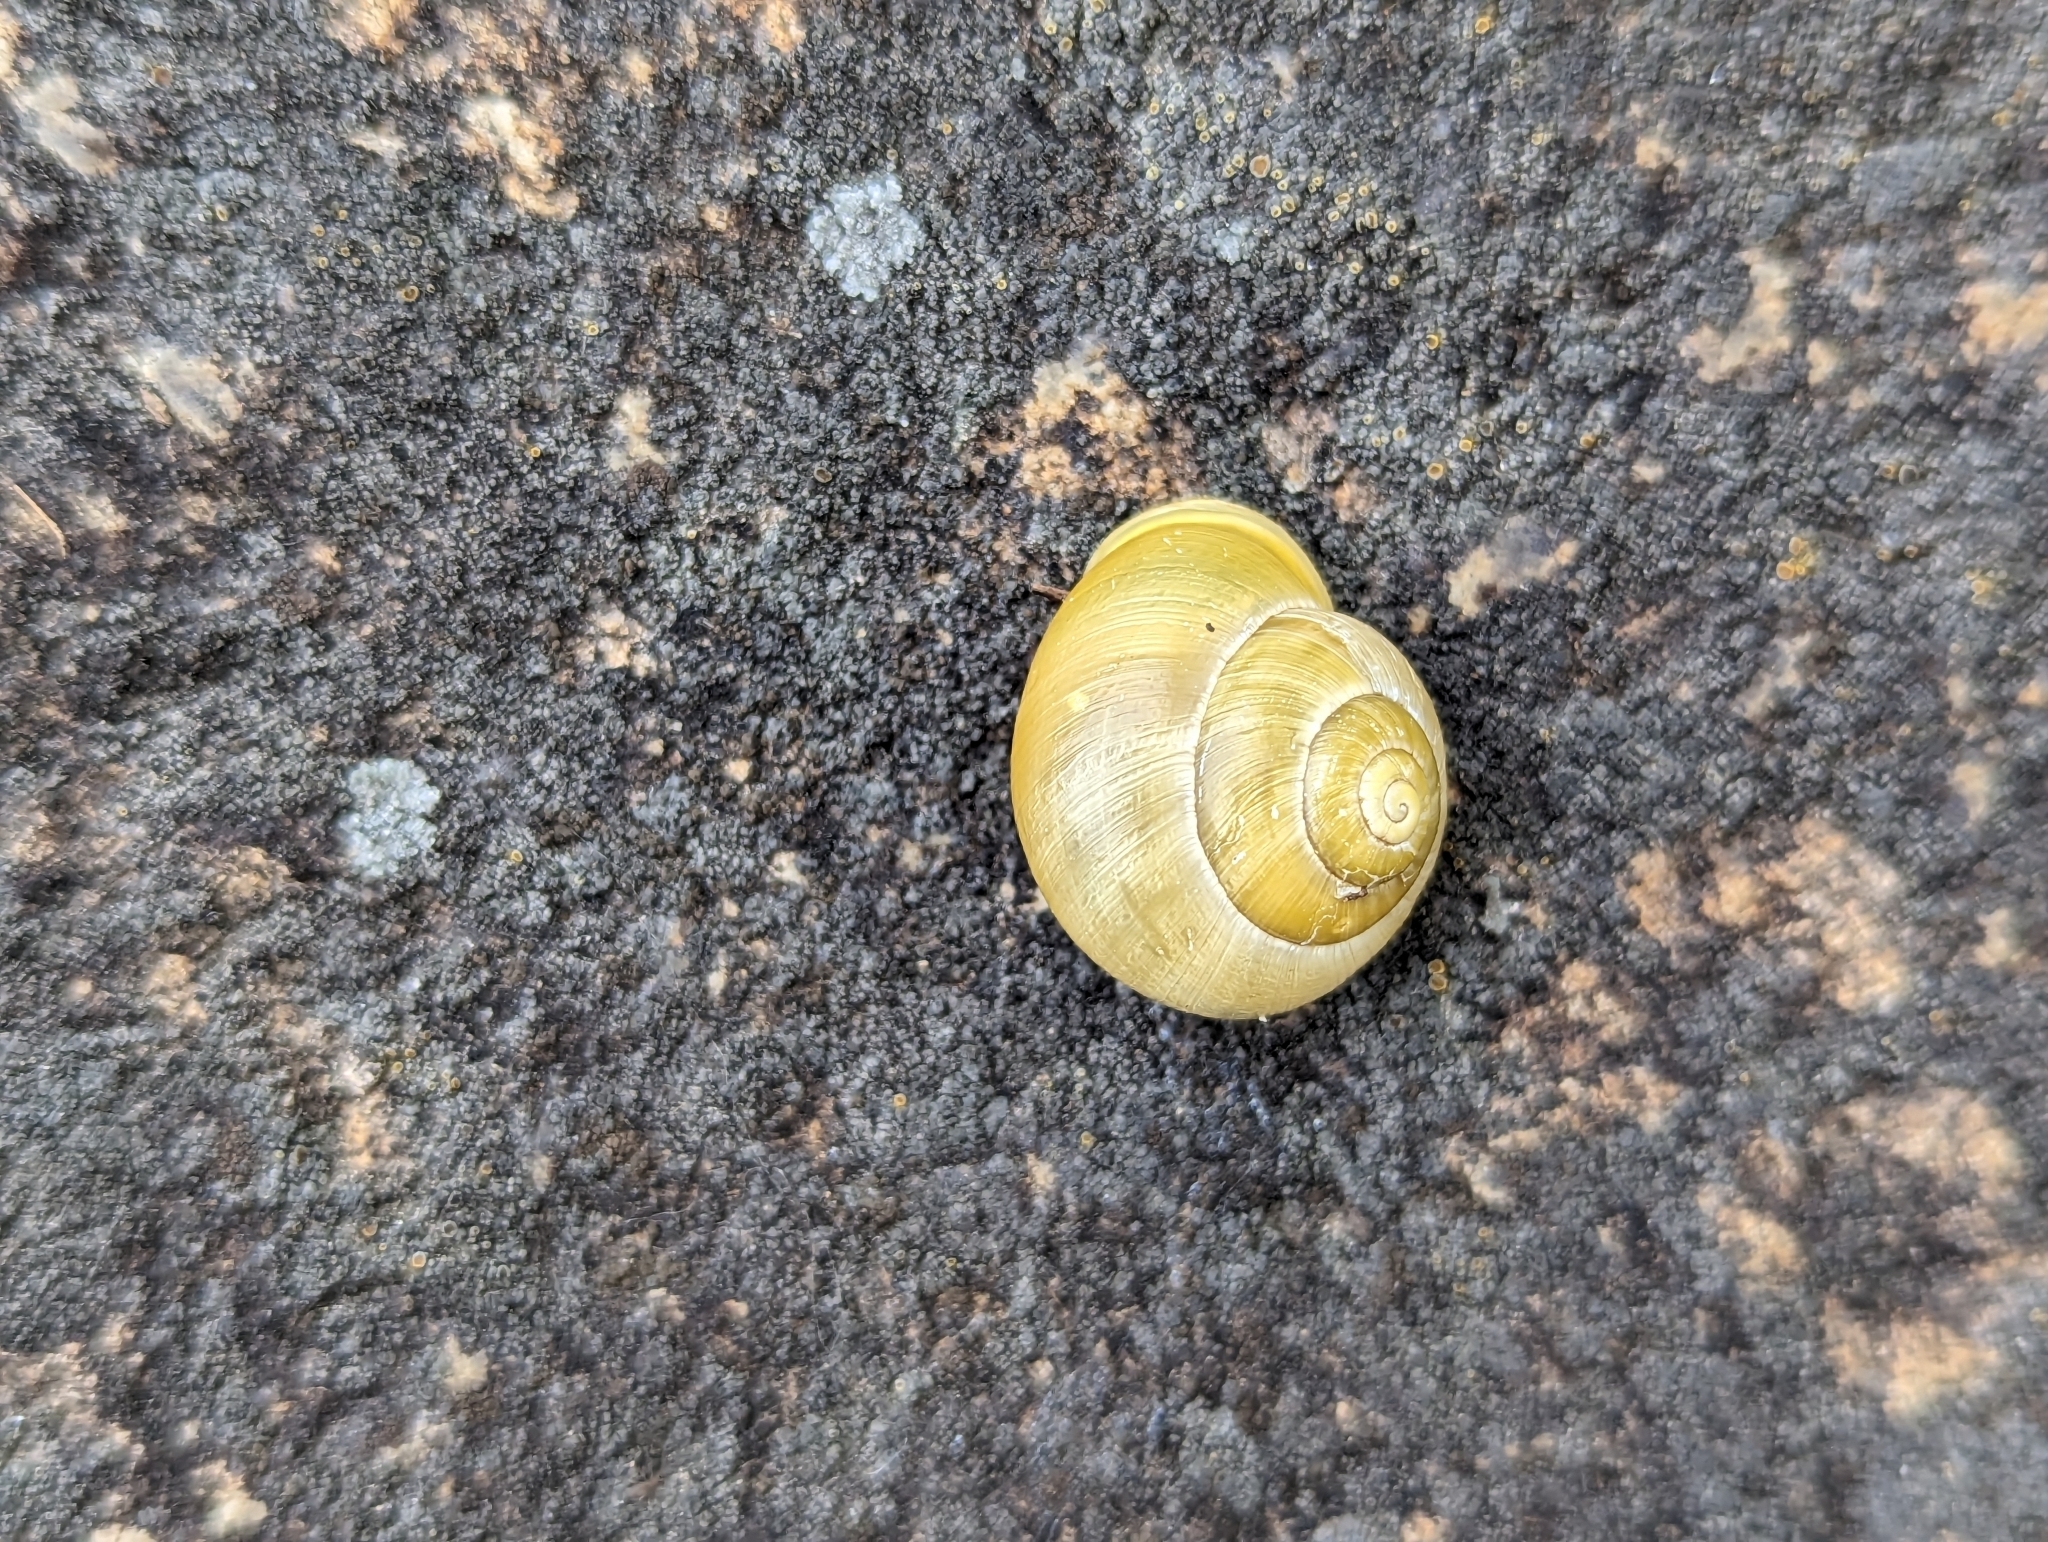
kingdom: Animalia
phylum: Mollusca
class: Gastropoda
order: Stylommatophora
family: Helicidae
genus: Cepaea
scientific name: Cepaea hortensis
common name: White-lip gardensnail
